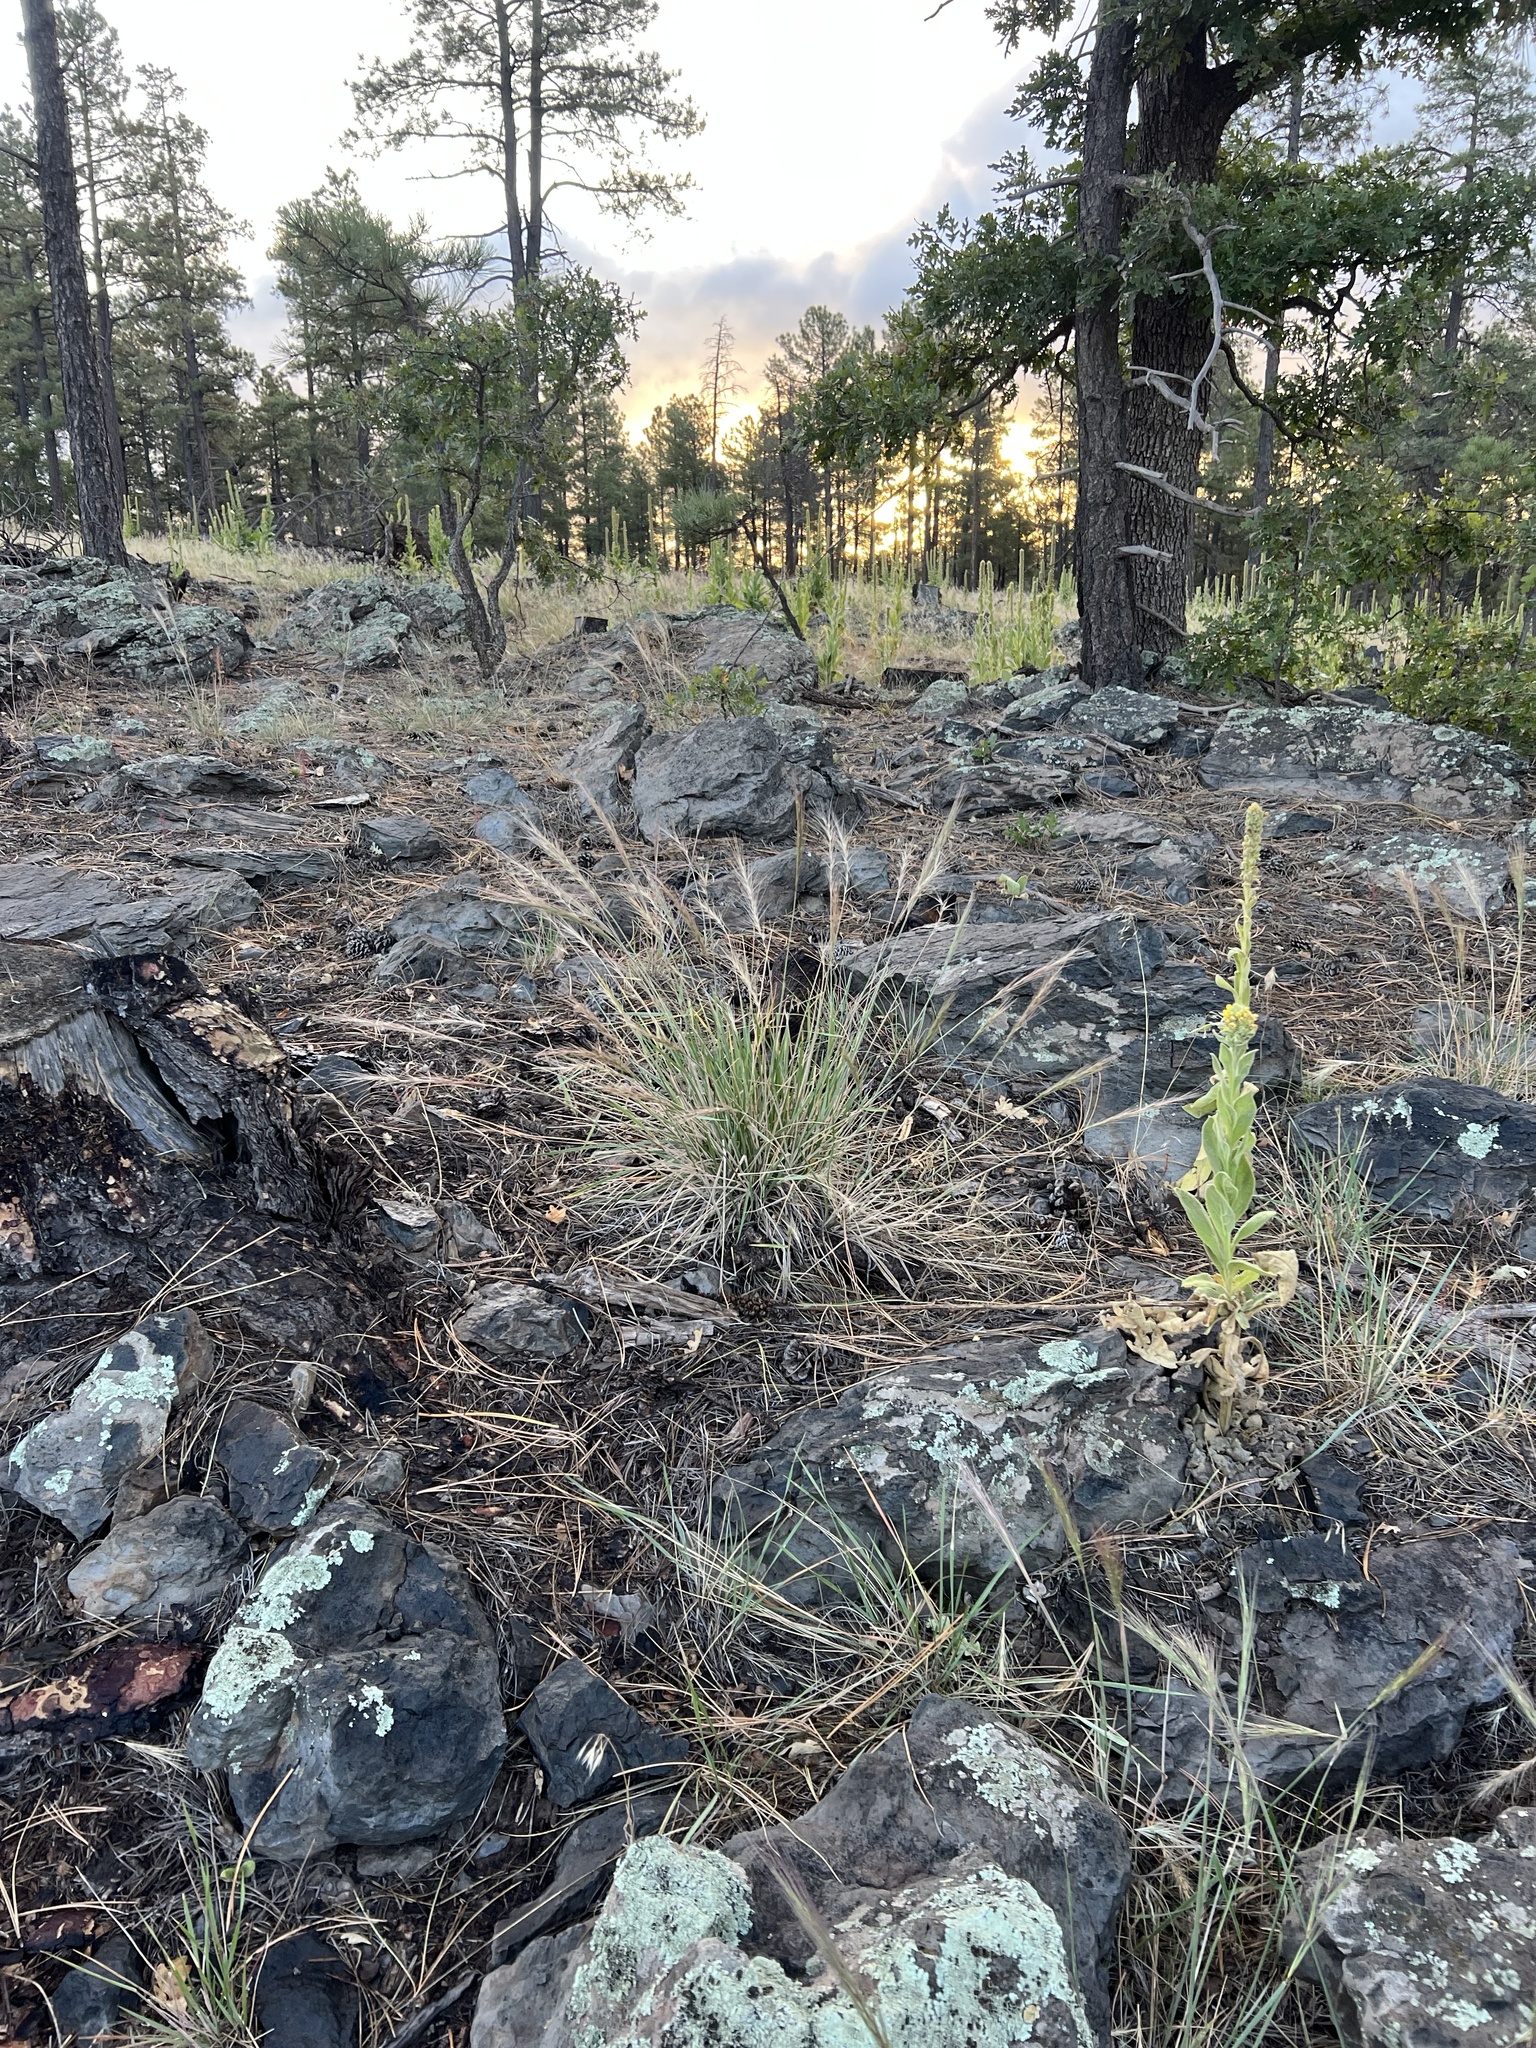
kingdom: Plantae
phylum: Tracheophyta
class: Liliopsida
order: Poales
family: Poaceae
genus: Elymus
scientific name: Elymus elymoides
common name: Bottlebrush squirreltail
